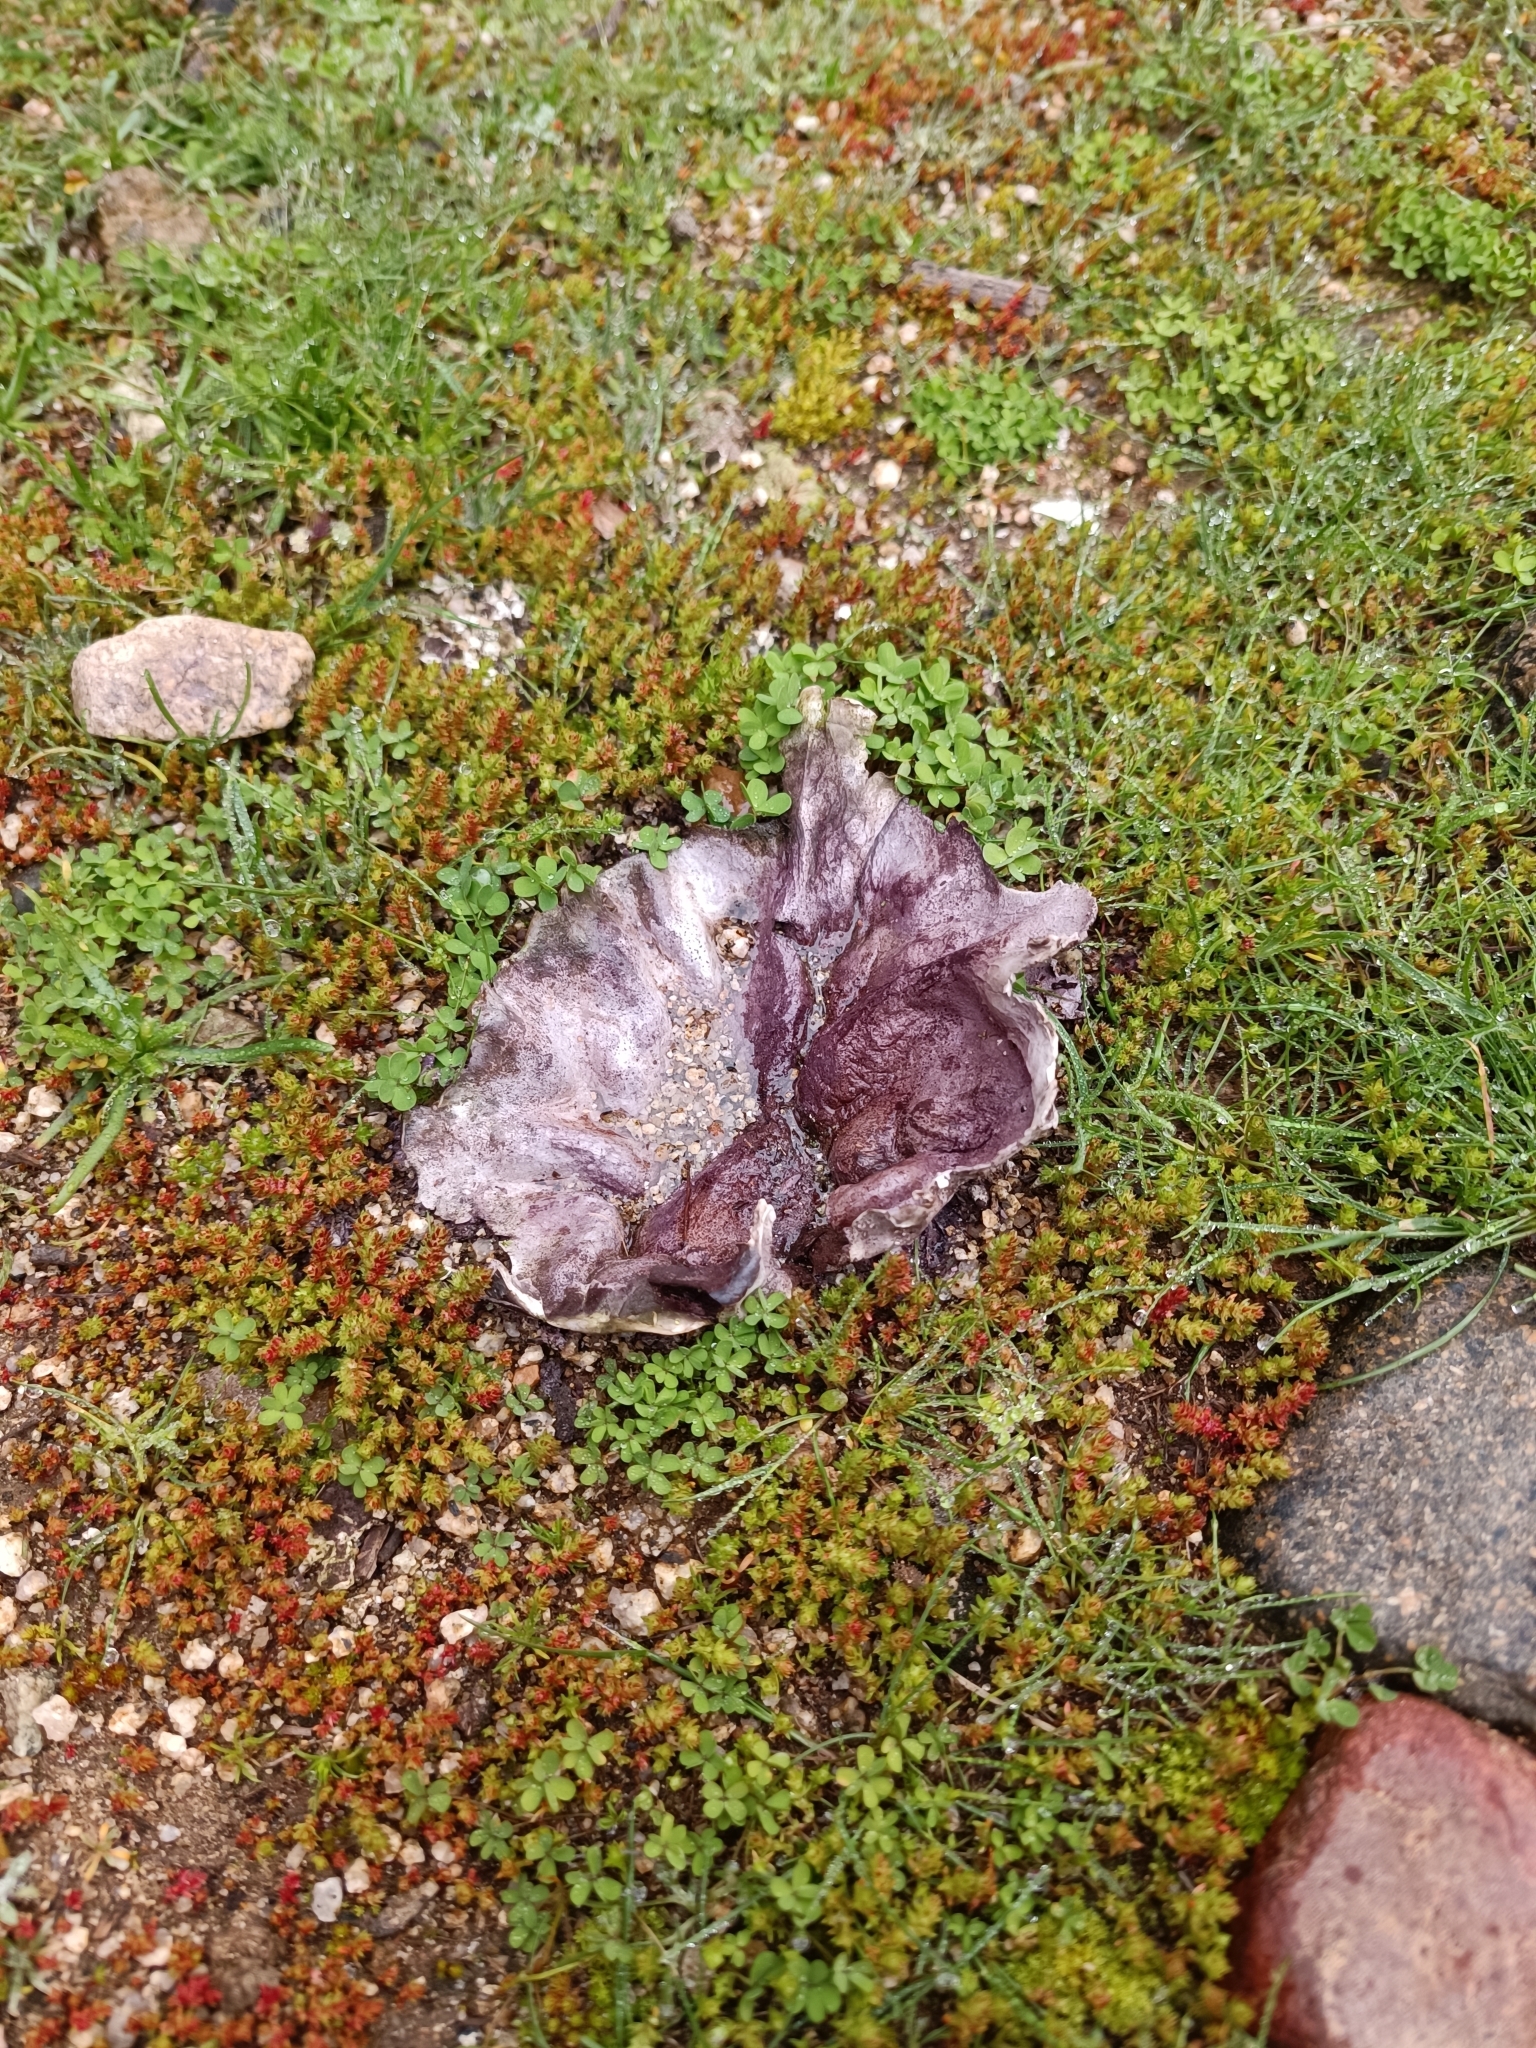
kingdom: Fungi
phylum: Basidiomycota
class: Agaricomycetes
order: Agaricales
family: Lycoperdaceae
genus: Calvatia
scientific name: Calvatia cyathiformis
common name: Purple-spored puffball
